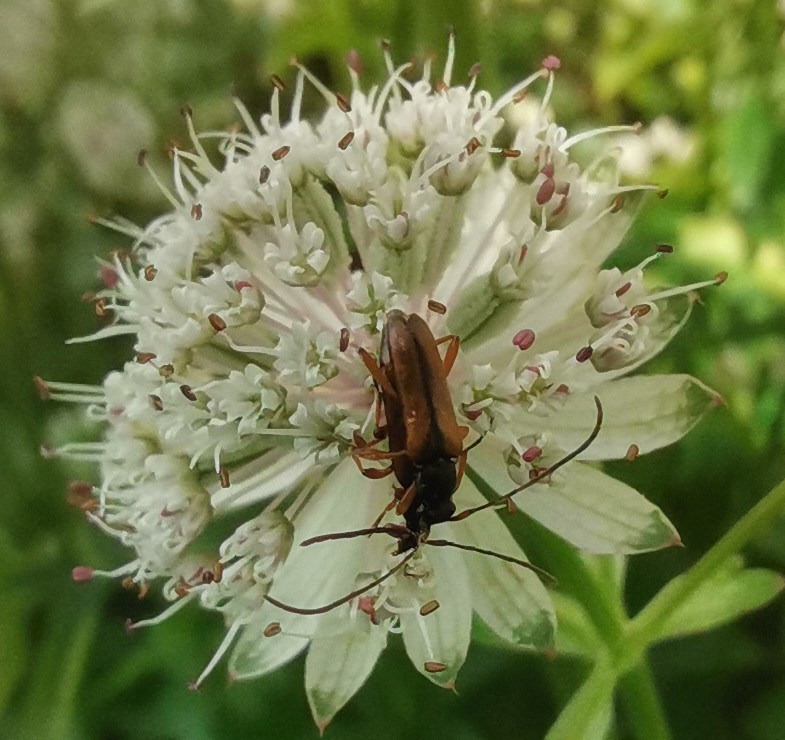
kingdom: Animalia
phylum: Arthropoda
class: Insecta
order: Coleoptera
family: Cerambycidae
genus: Alosterna
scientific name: Alosterna tabacicolor
